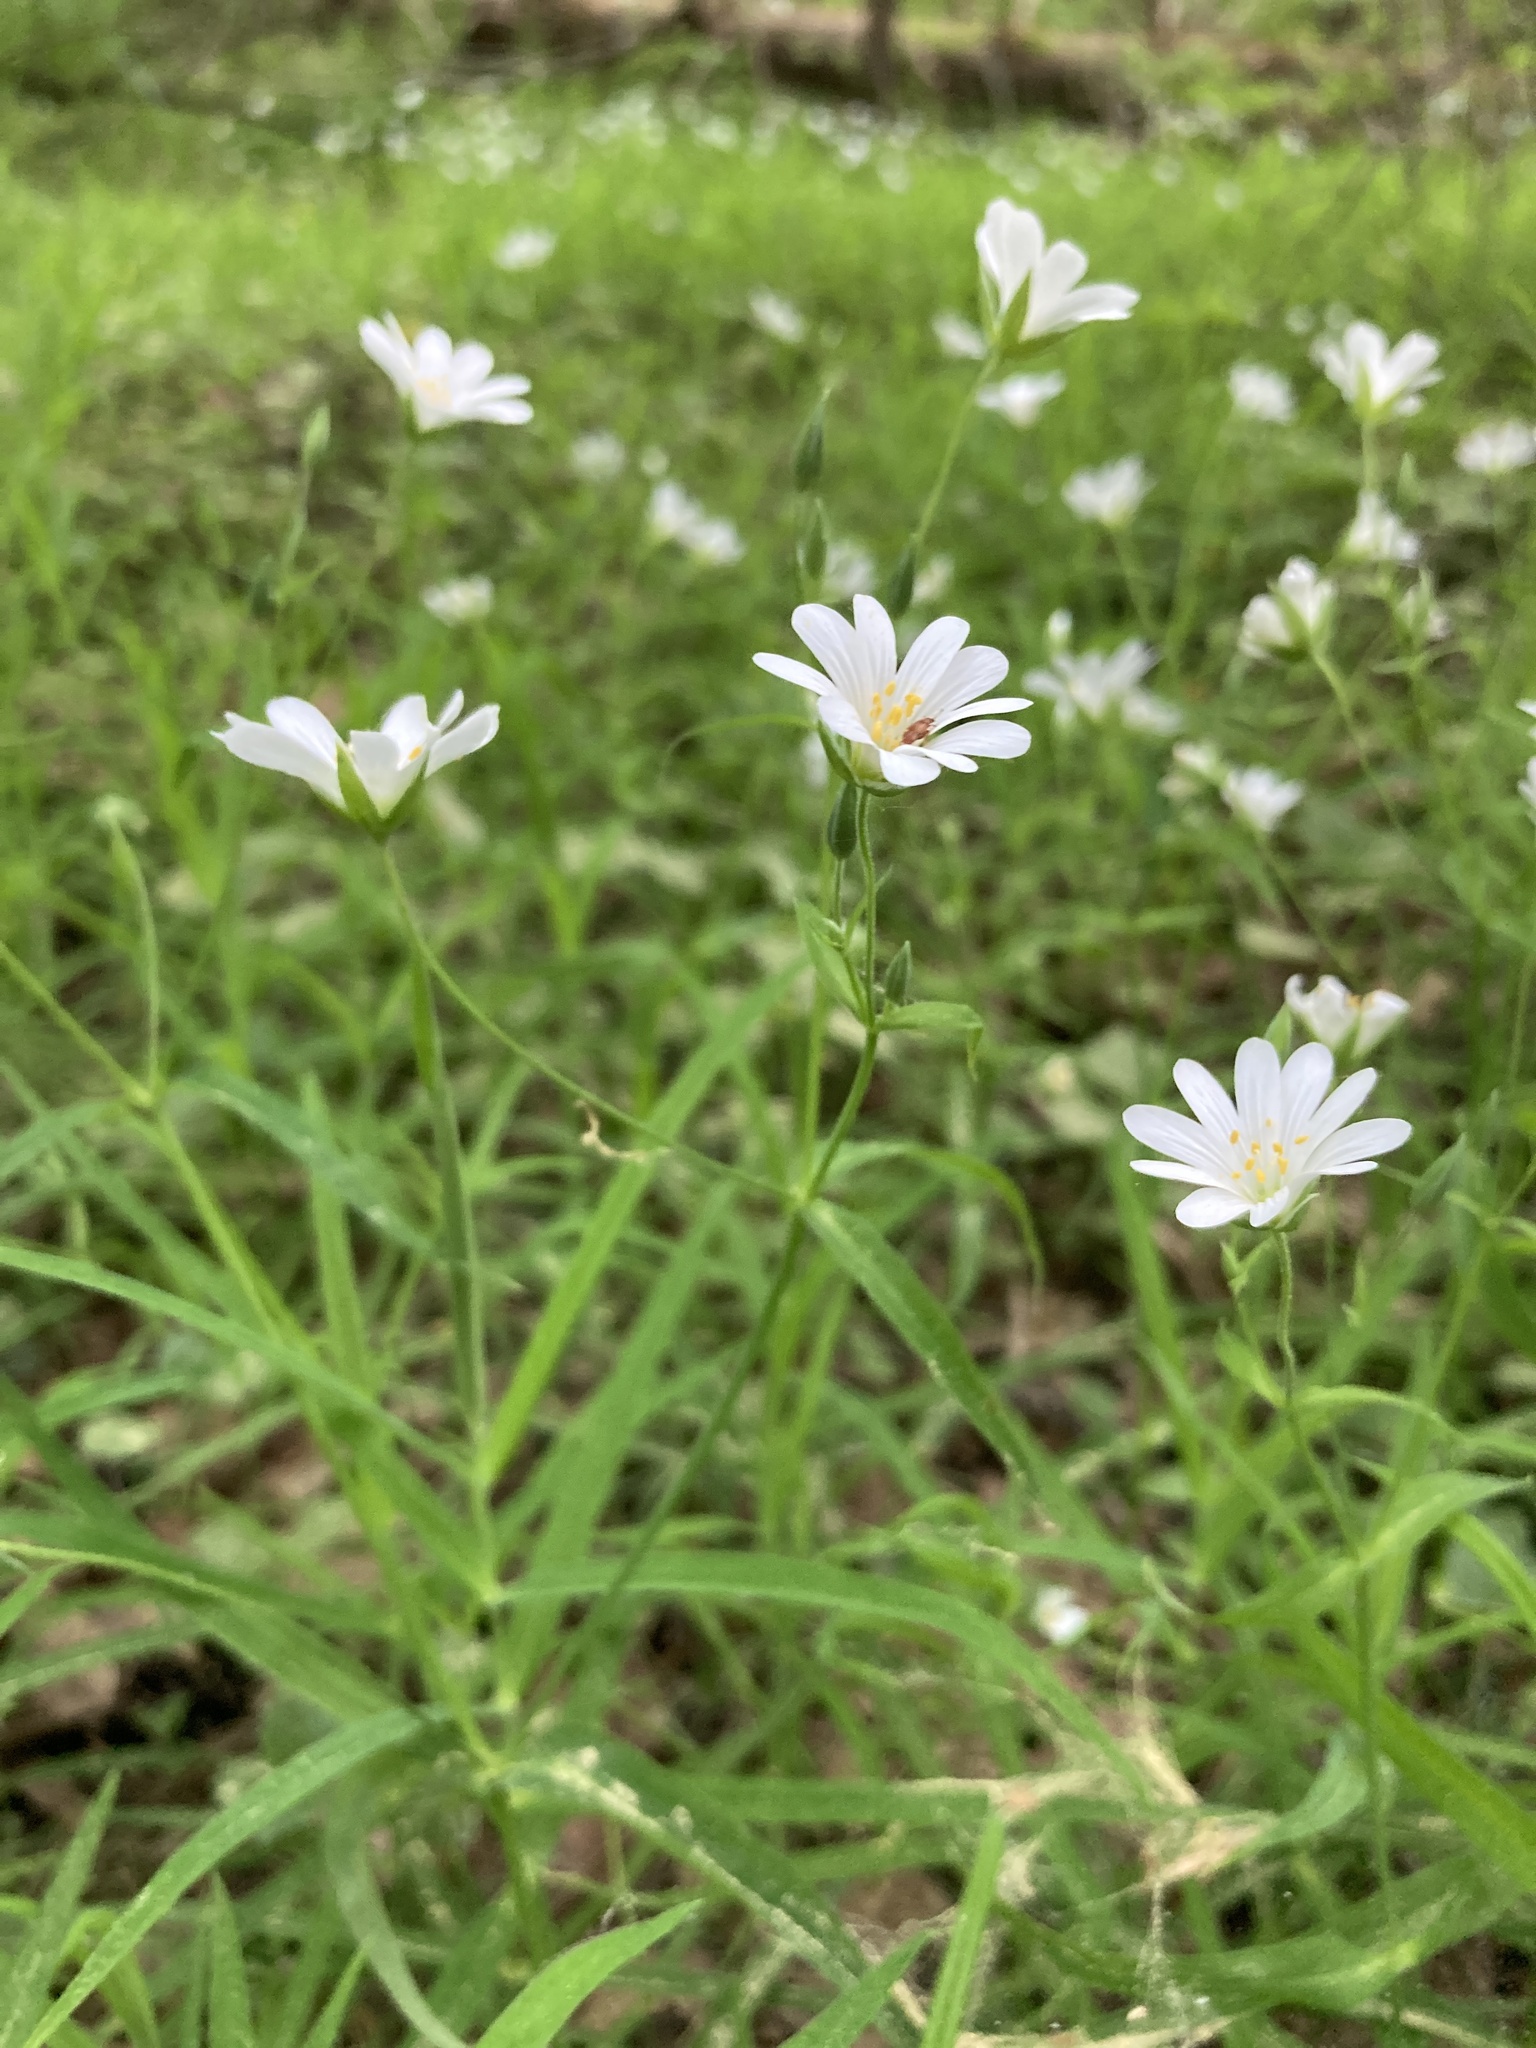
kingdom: Plantae
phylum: Tracheophyta
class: Magnoliopsida
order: Caryophyllales
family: Caryophyllaceae
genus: Rabelera
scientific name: Rabelera holostea
